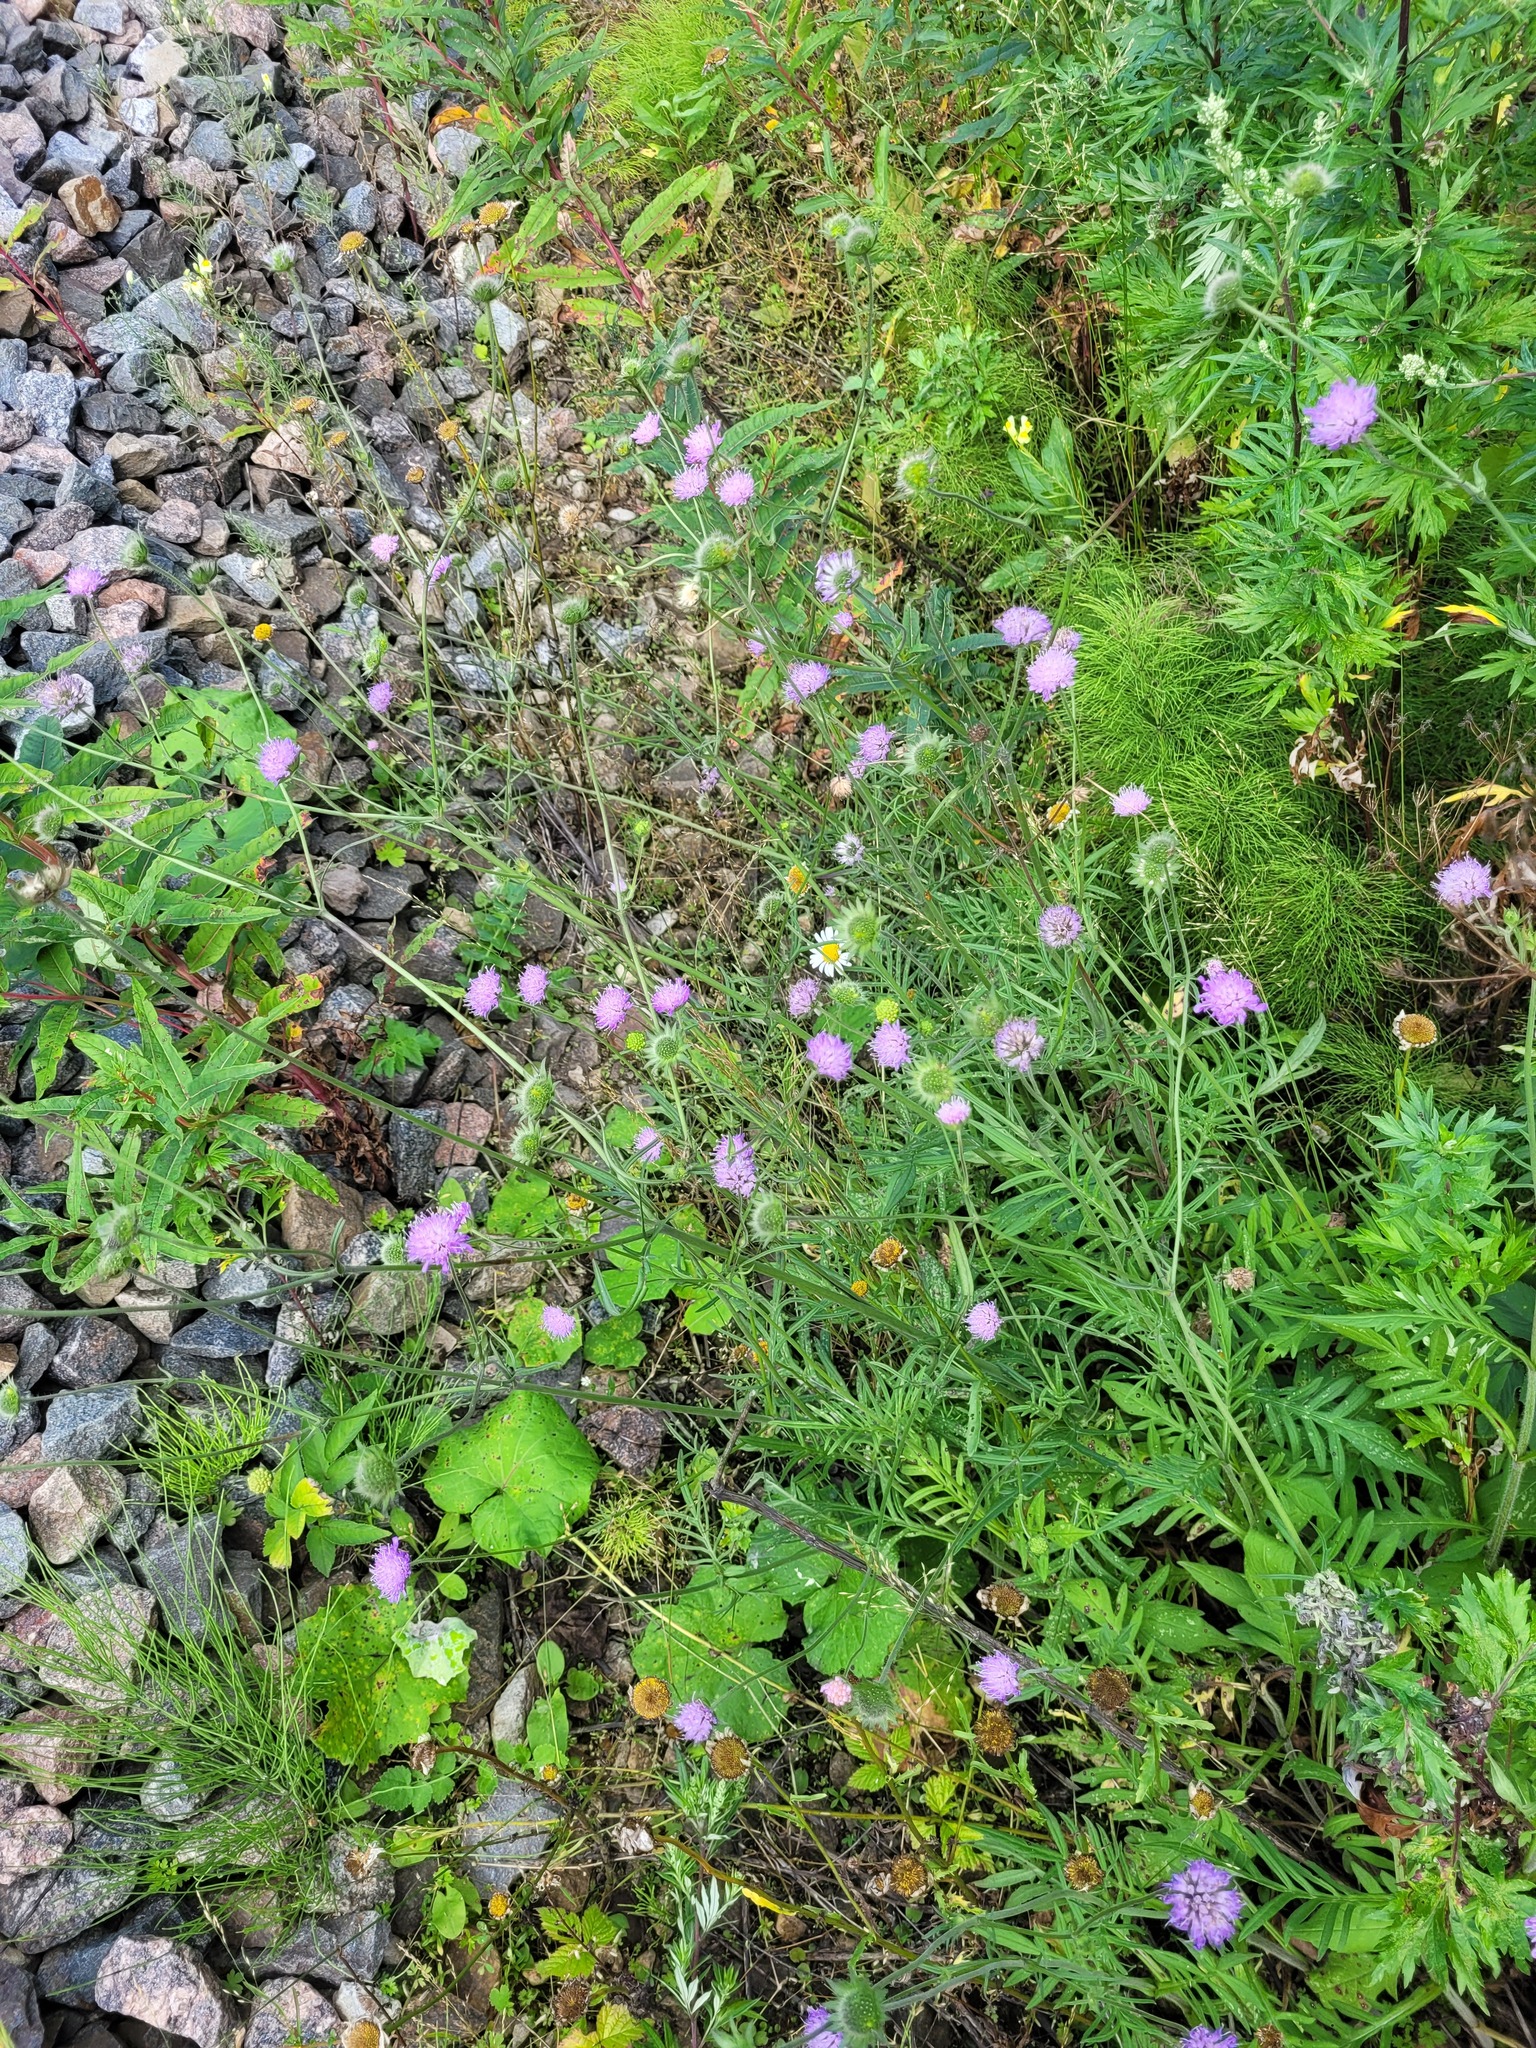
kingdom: Plantae
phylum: Tracheophyta
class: Magnoliopsida
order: Dipsacales
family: Caprifoliaceae
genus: Knautia
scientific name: Knautia arvensis
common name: Field scabiosa
